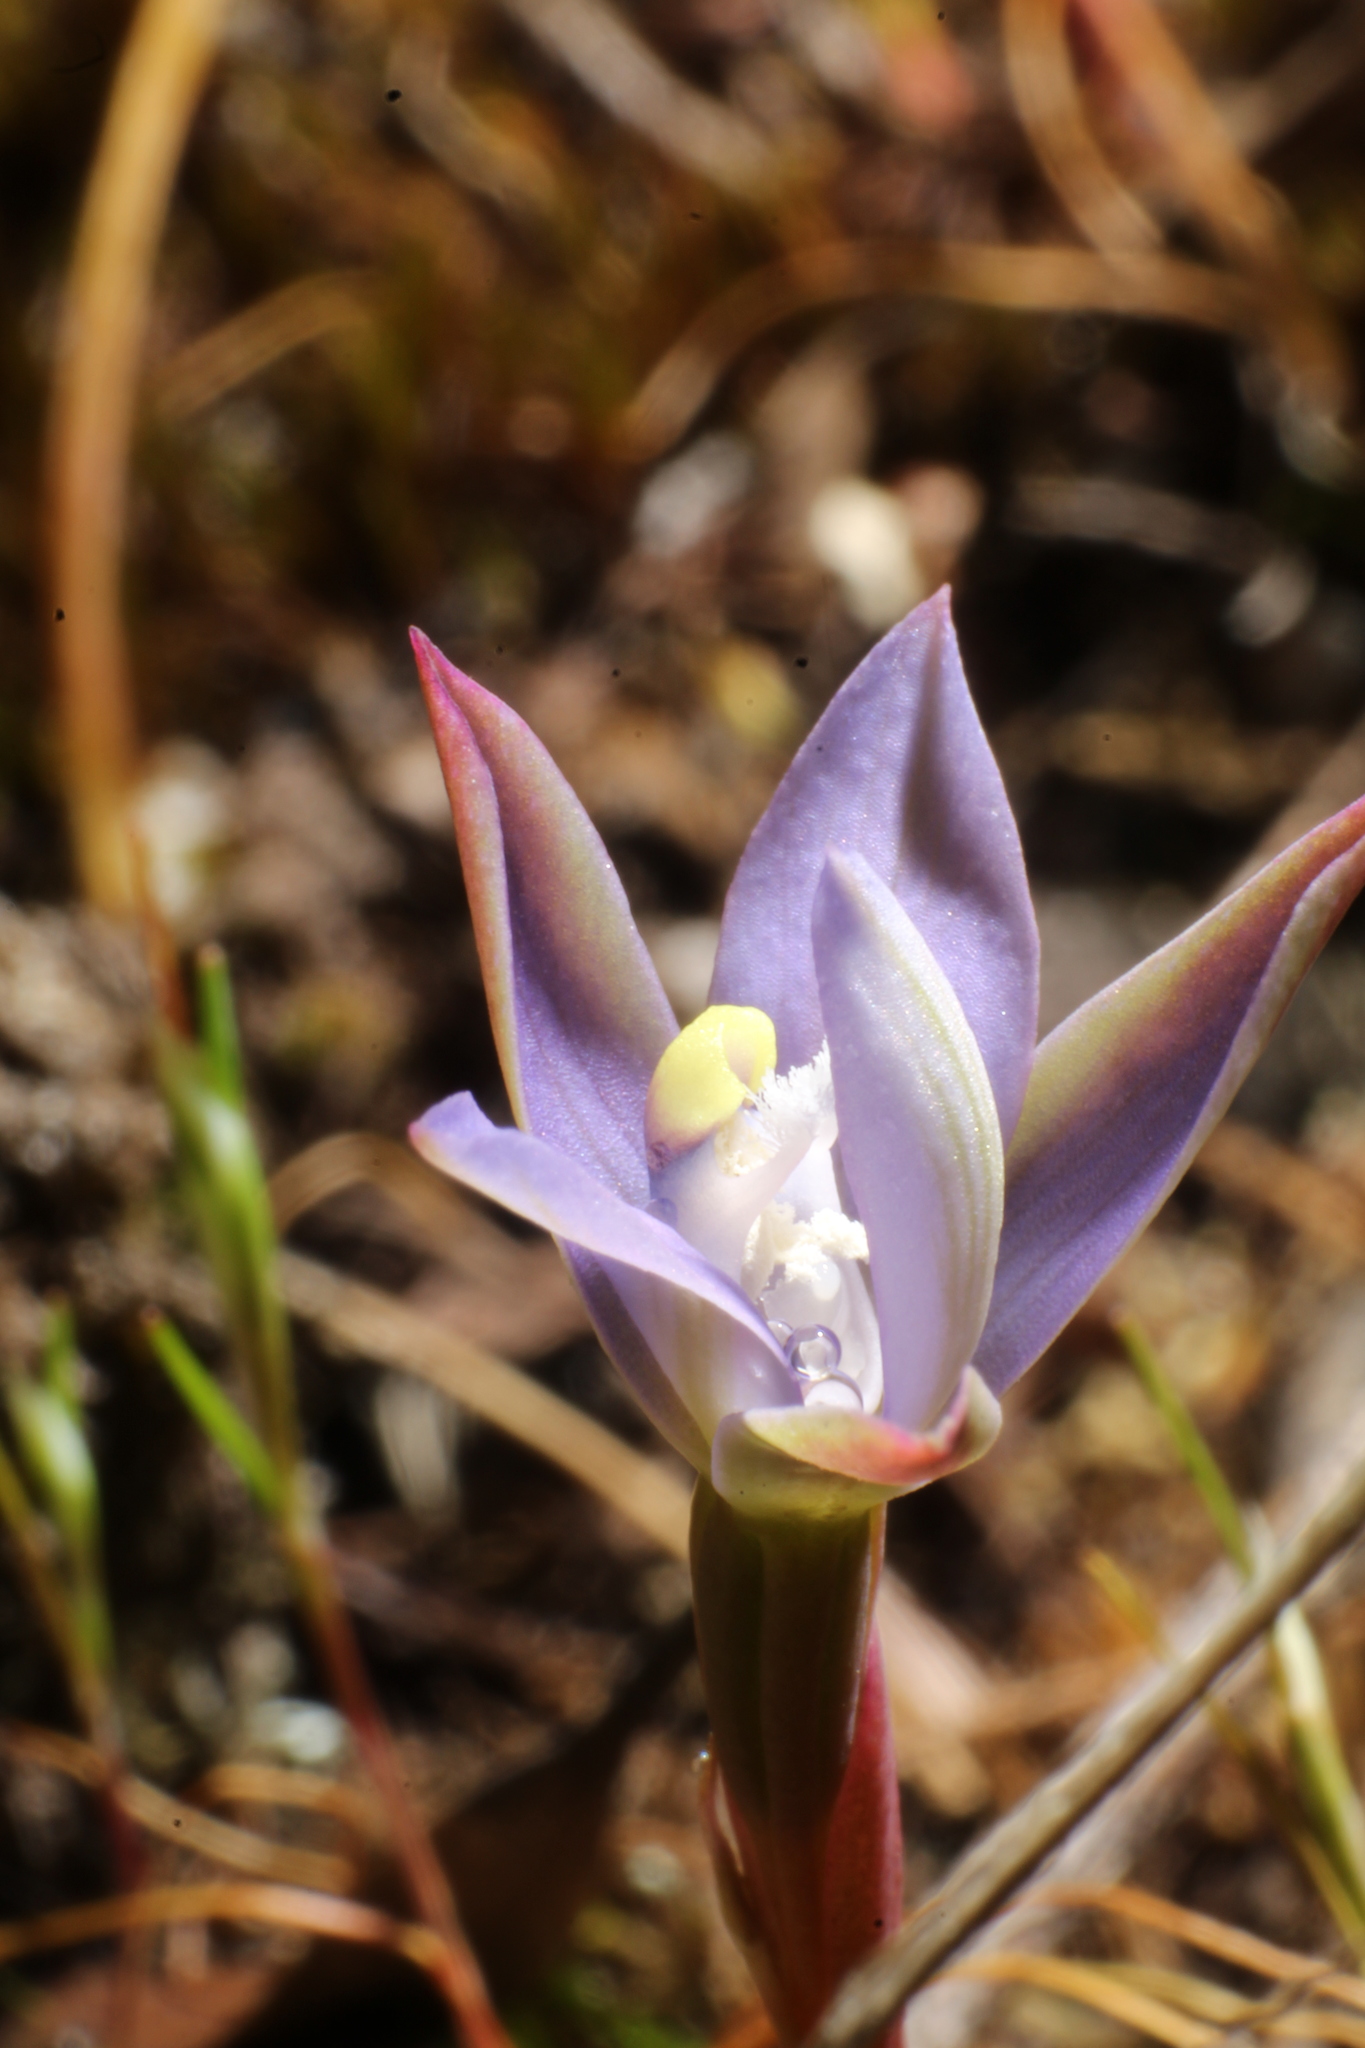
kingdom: Plantae
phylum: Tracheophyta
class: Liliopsida
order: Asparagales
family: Orchidaceae
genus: Thelymitra
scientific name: Thelymitra vulgaris
